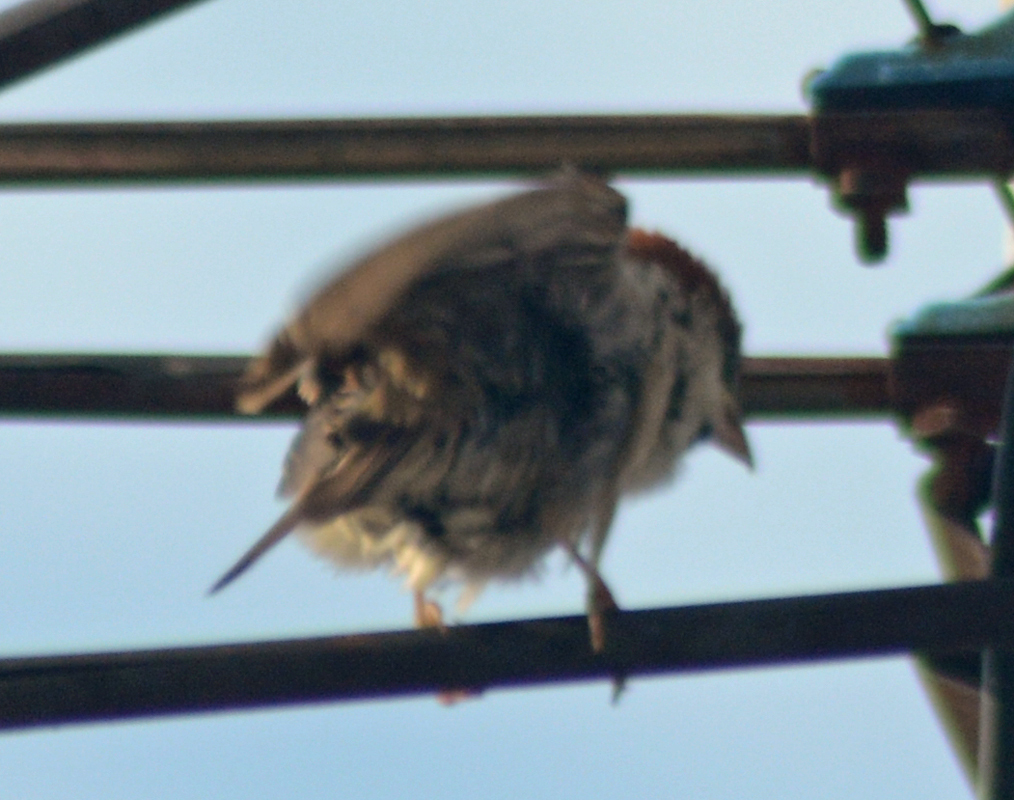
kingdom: Animalia
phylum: Chordata
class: Aves
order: Passeriformes
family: Passeridae
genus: Passer
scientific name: Passer domesticus
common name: House sparrow
